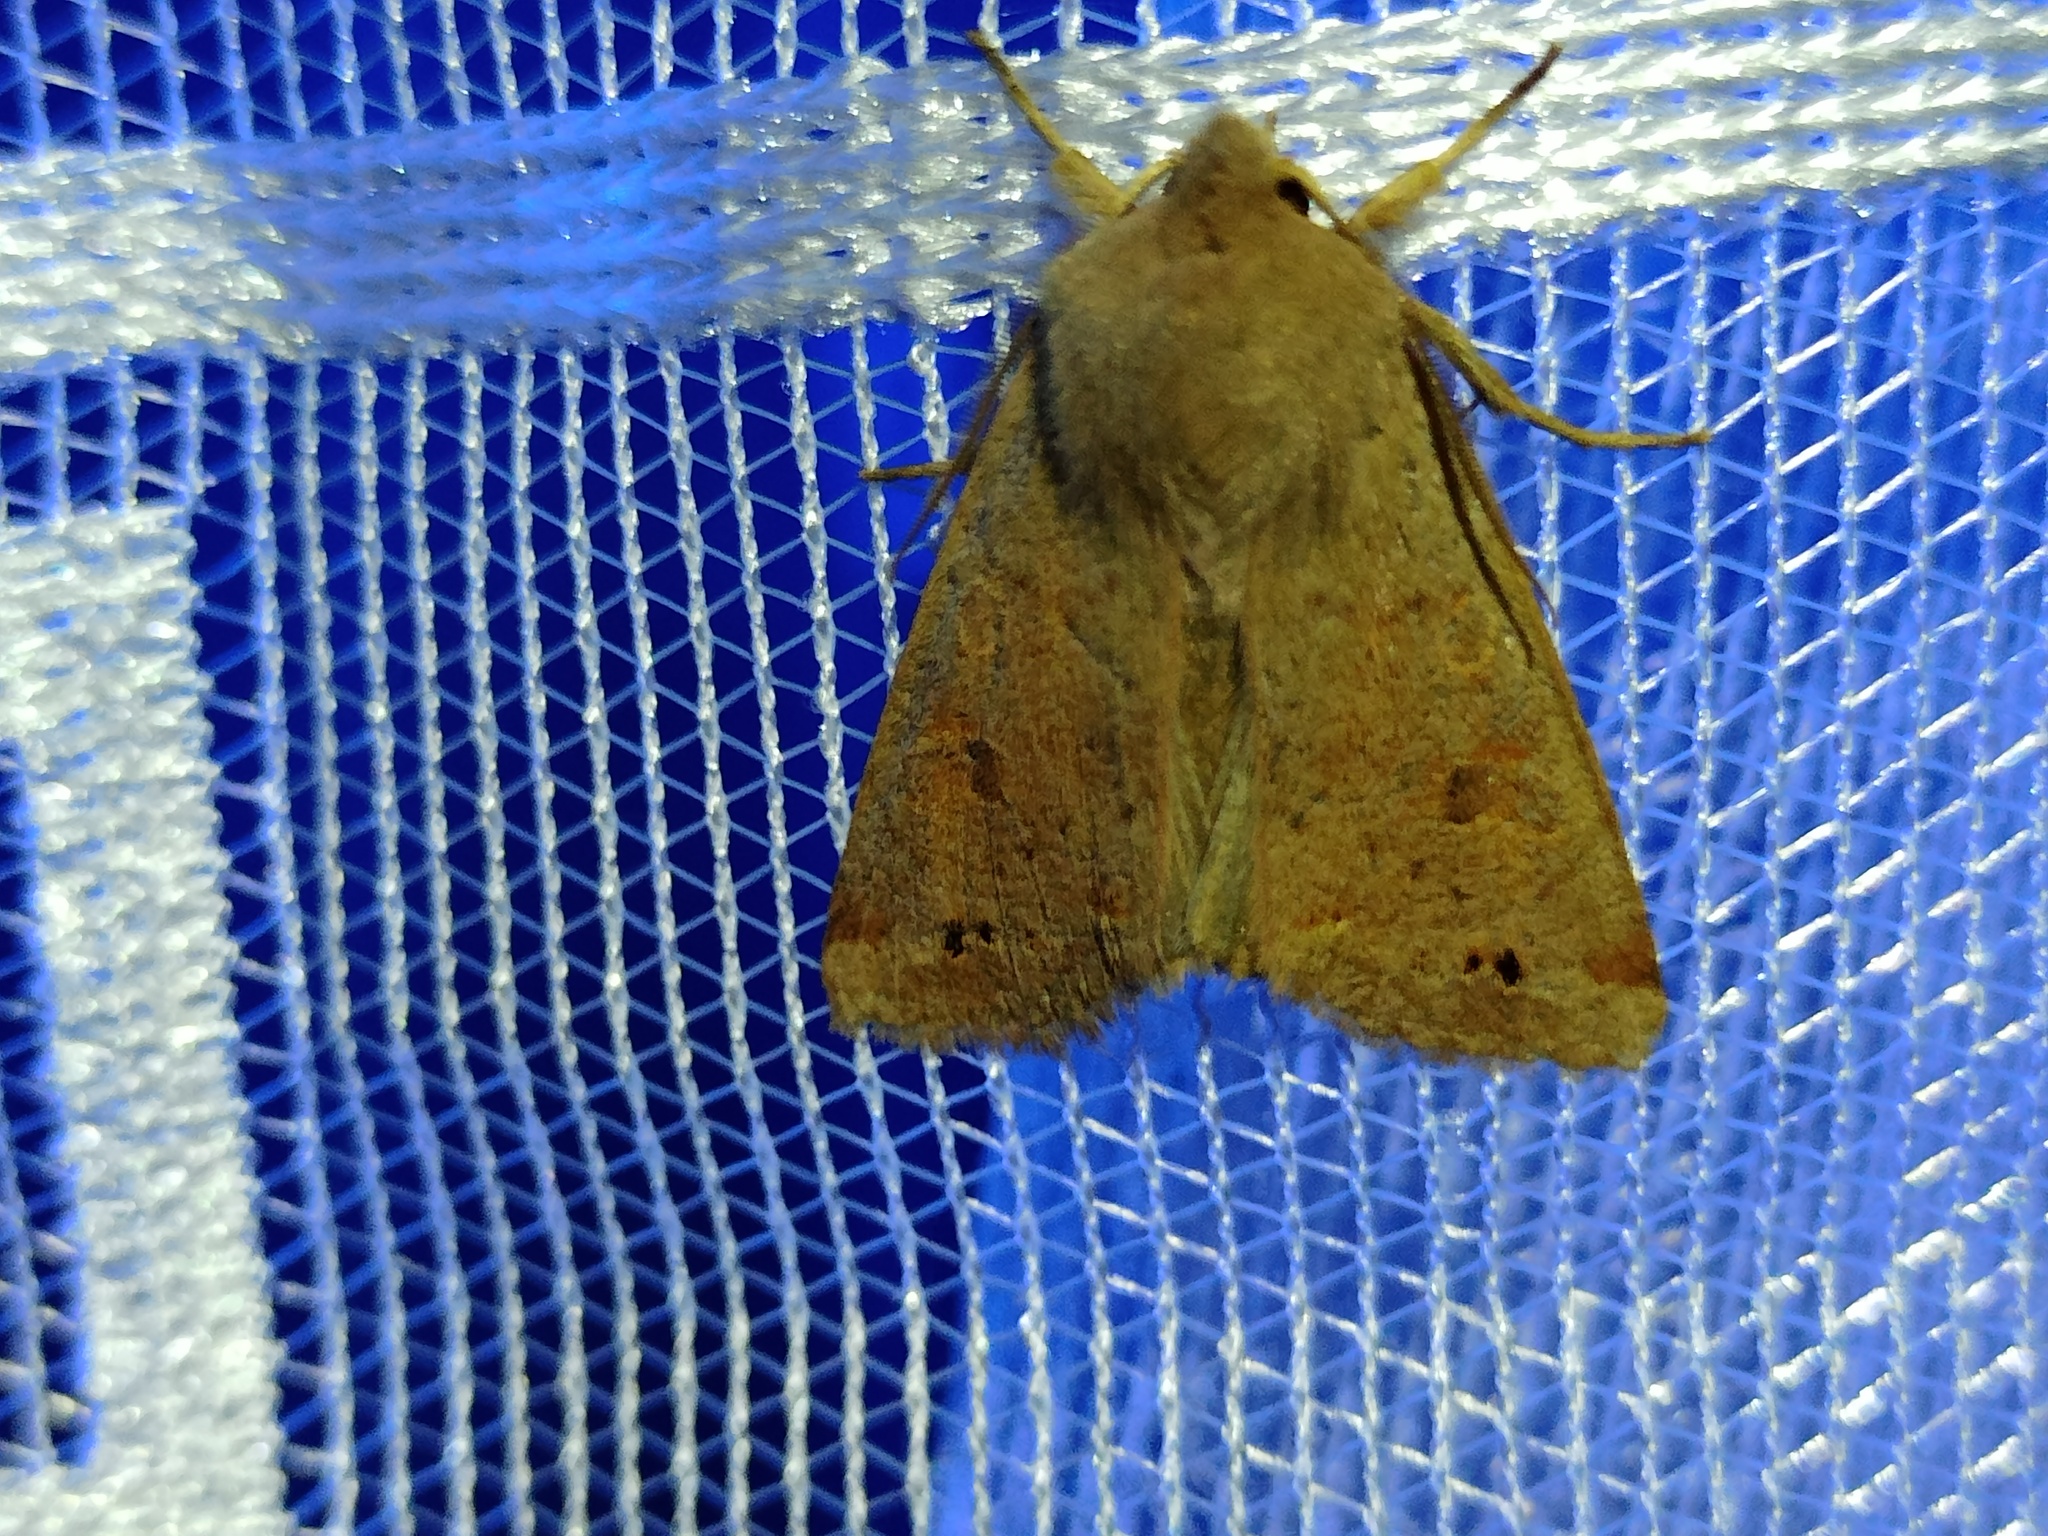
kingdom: Animalia
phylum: Arthropoda
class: Insecta
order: Lepidoptera
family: Noctuidae
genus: Anorthoa
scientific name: Anorthoa munda
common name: Twin-spotted quaker
